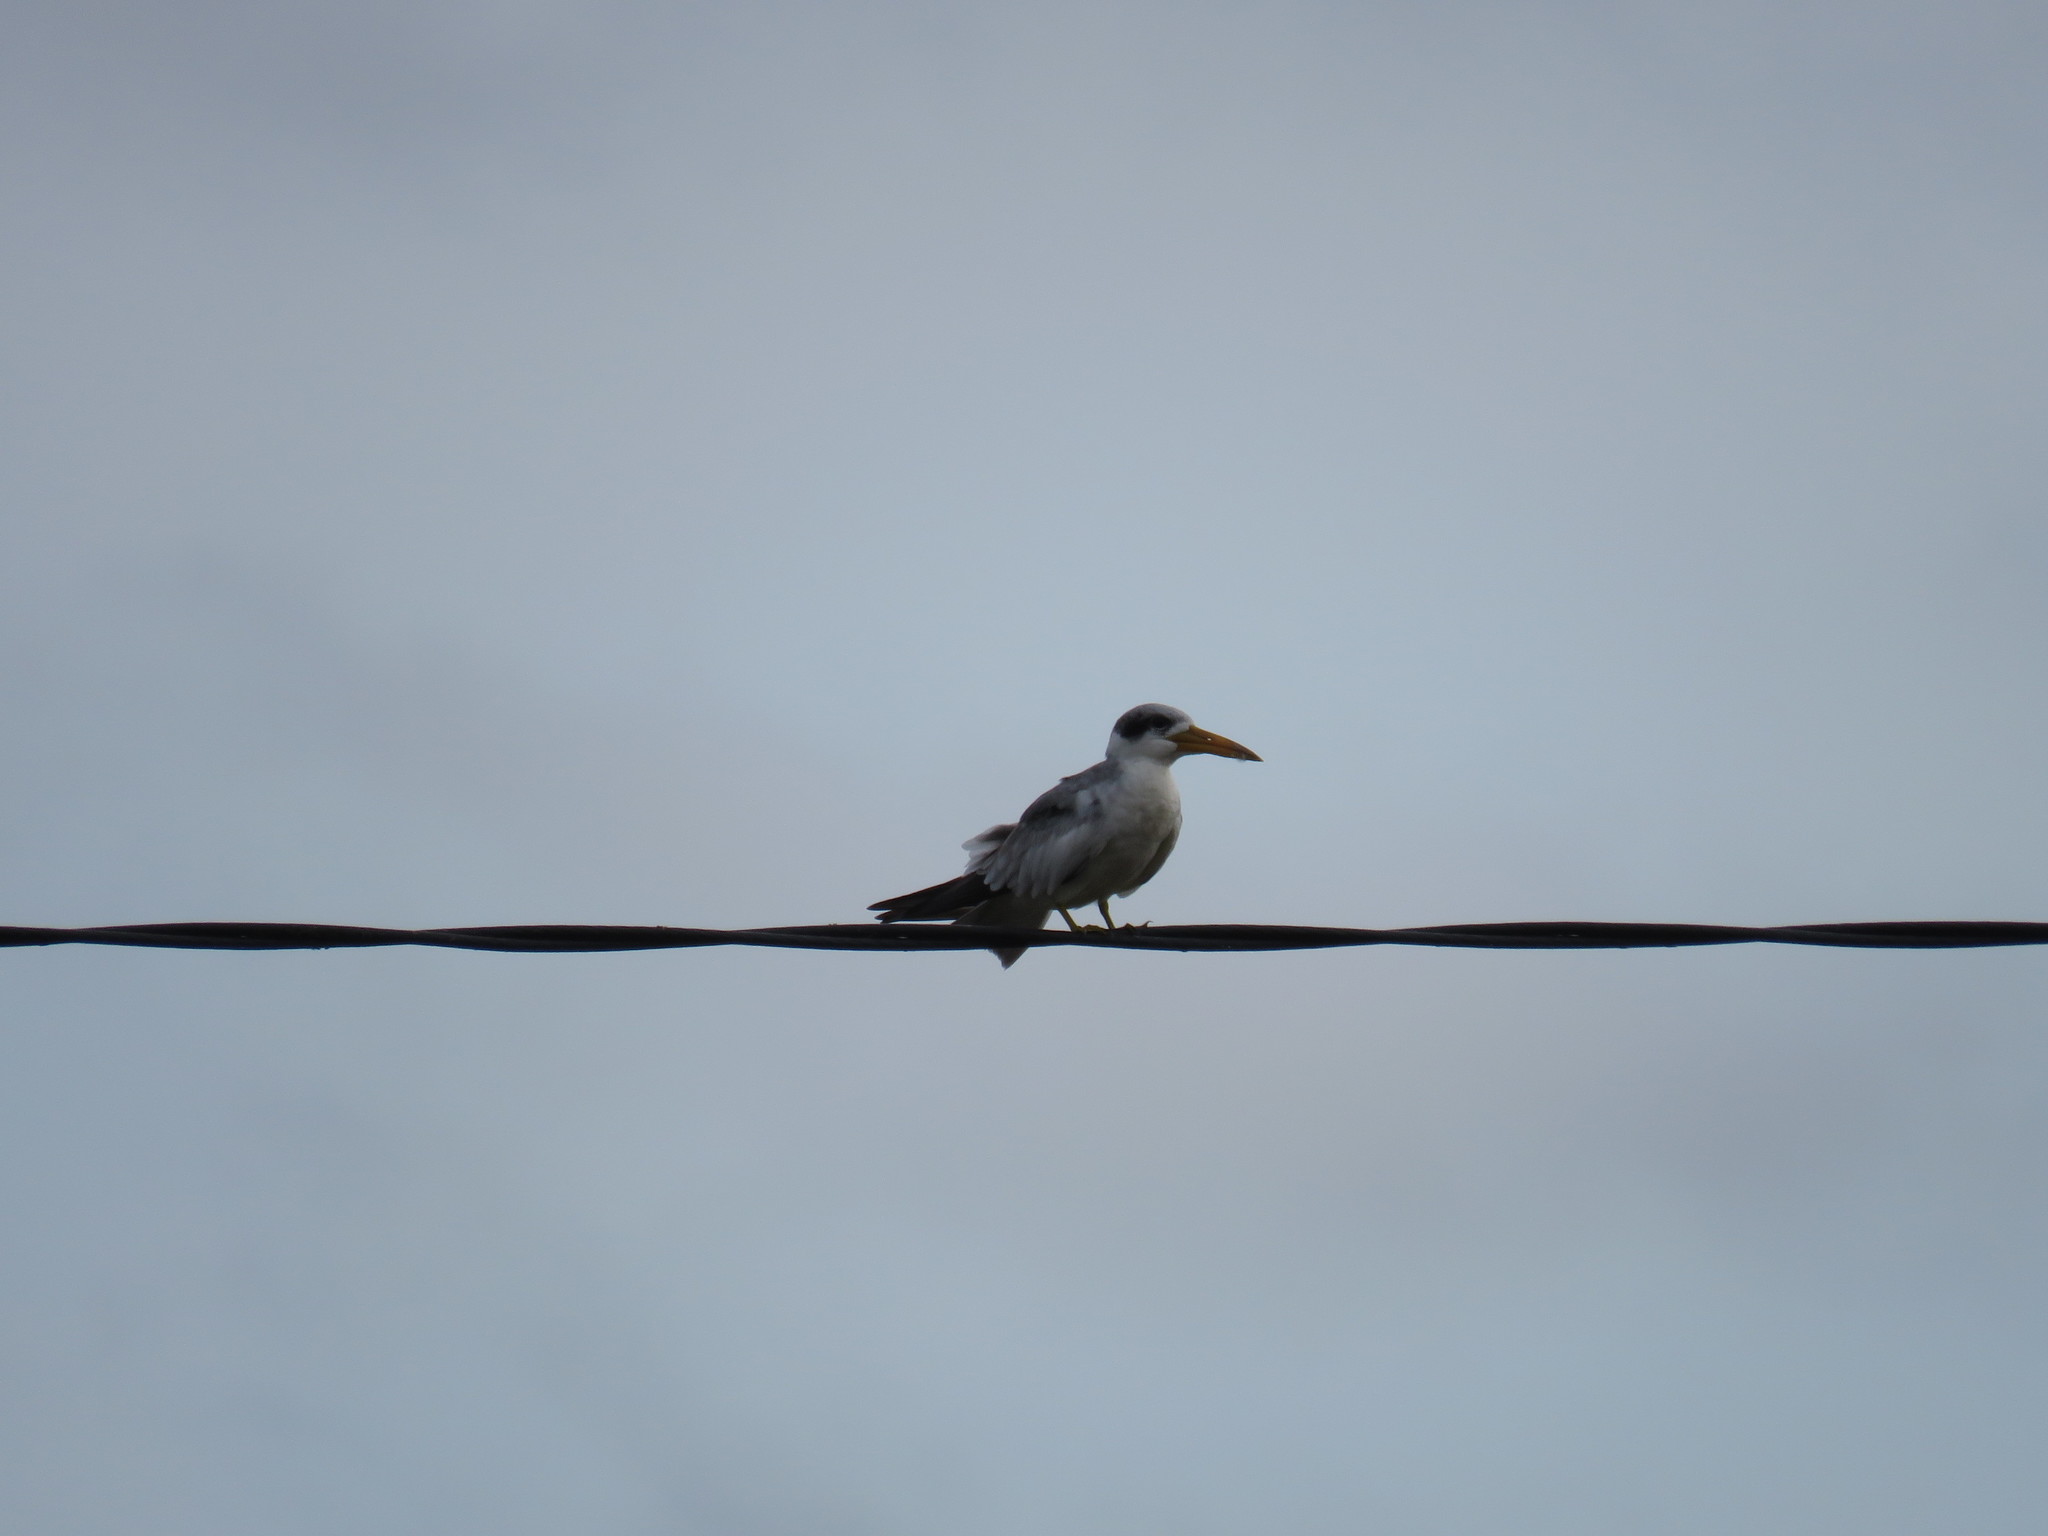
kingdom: Animalia
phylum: Chordata
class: Aves
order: Charadriiformes
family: Laridae
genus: Phaetusa
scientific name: Phaetusa simplex
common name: Large-billed tern
